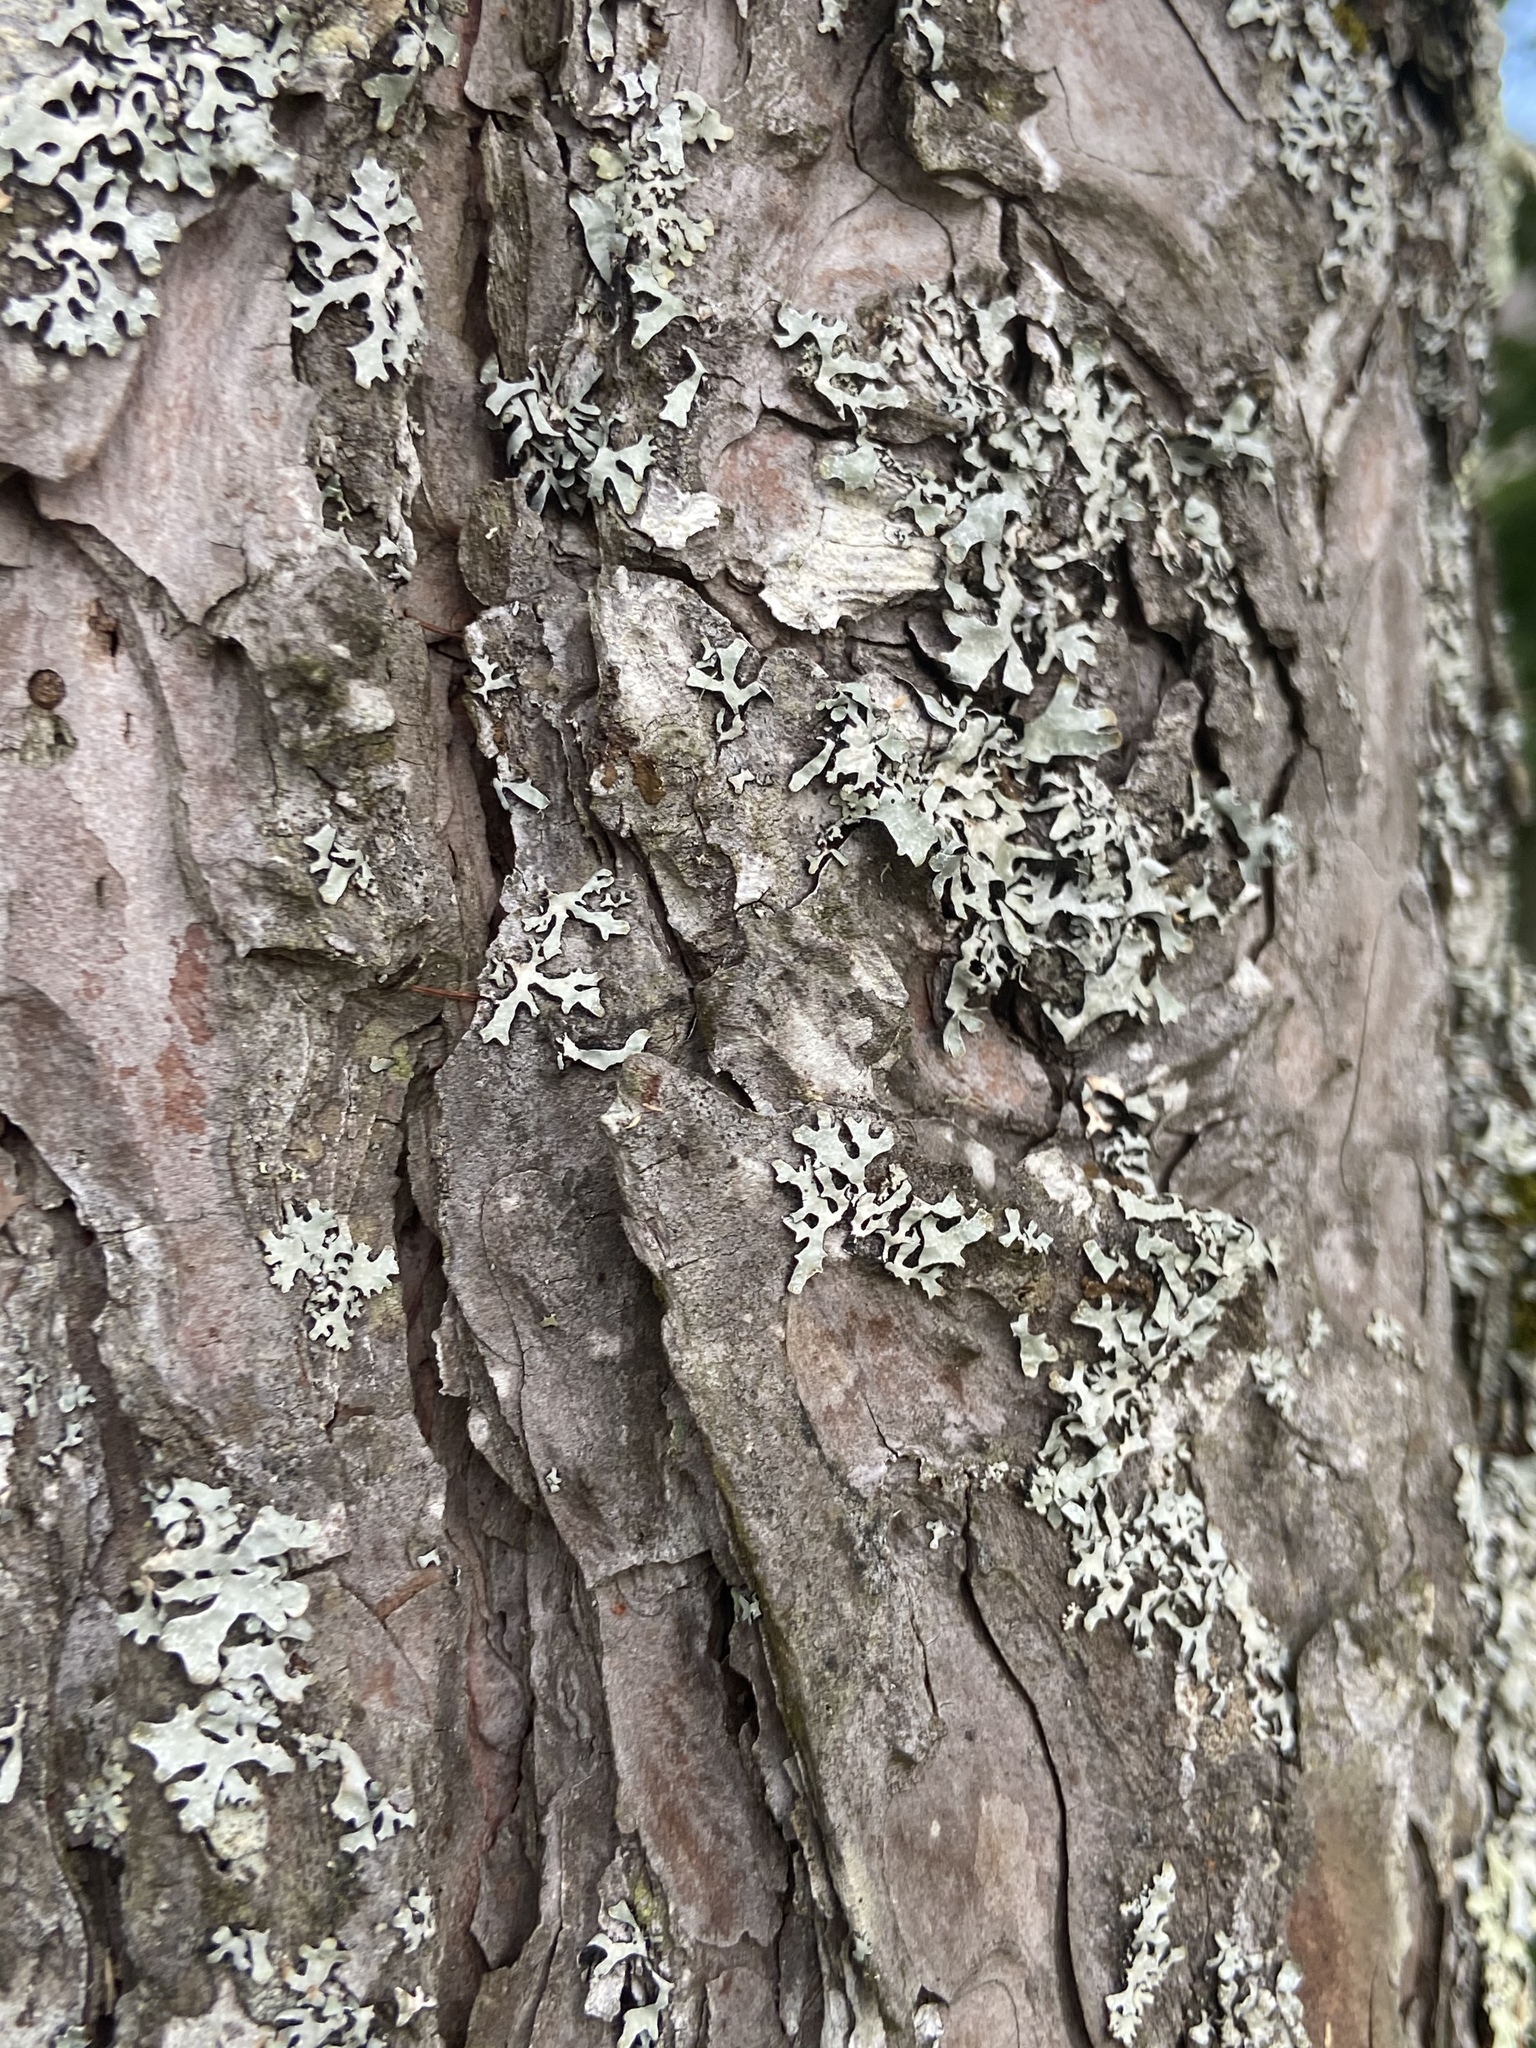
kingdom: Fungi
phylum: Ascomycota
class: Lecanoromycetes
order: Lecanorales
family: Parmeliaceae
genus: Parmelia
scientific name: Parmelia squarrosa
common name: Bottle brush shield lichen
